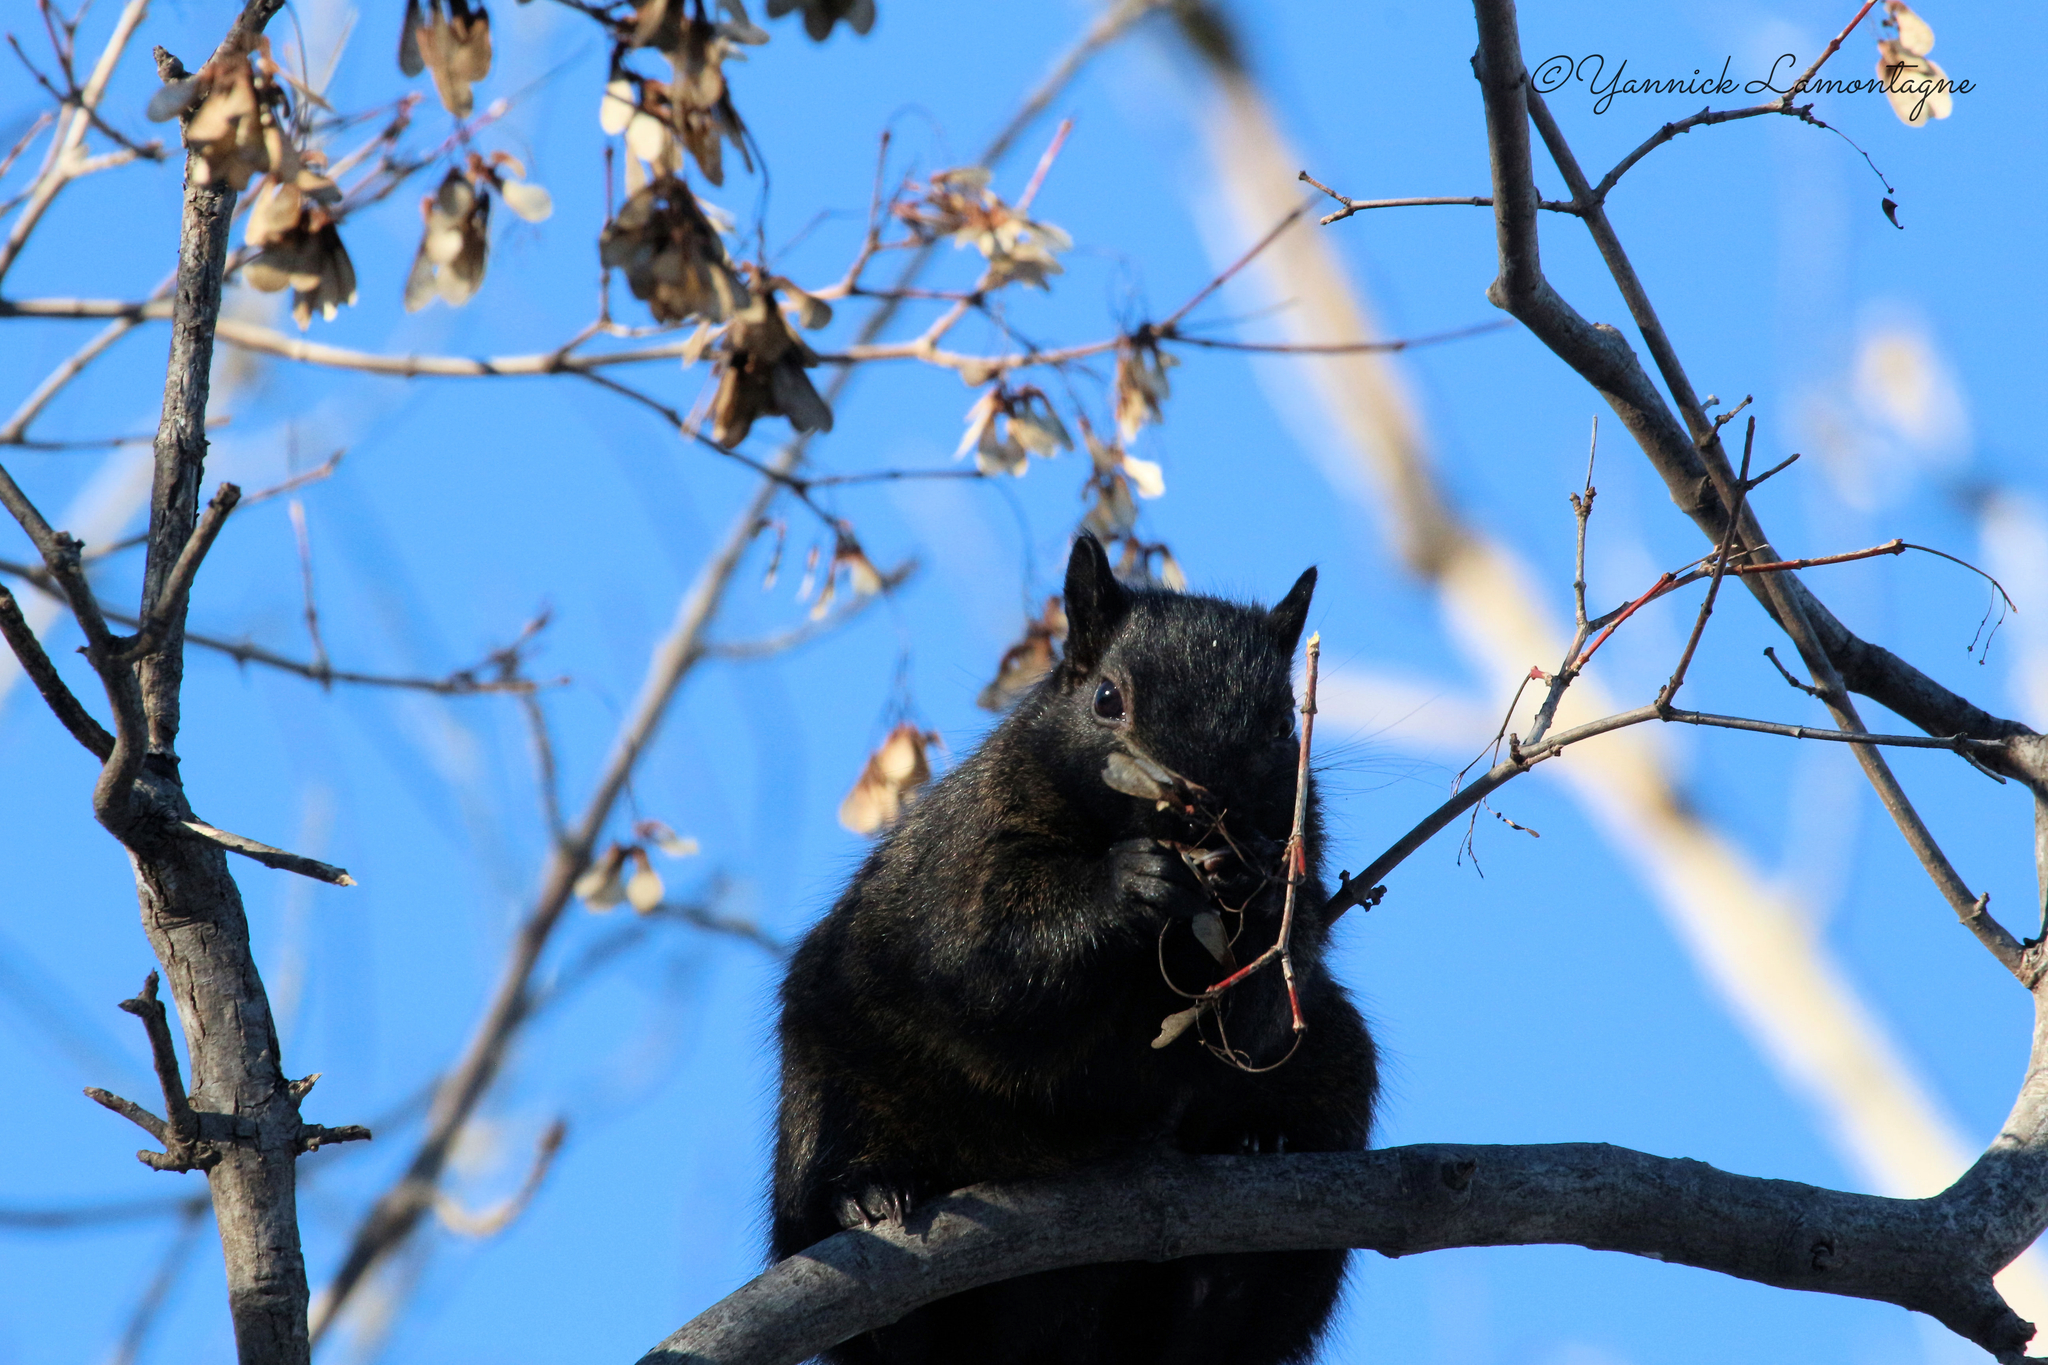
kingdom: Animalia
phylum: Chordata
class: Mammalia
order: Rodentia
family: Sciuridae
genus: Sciurus
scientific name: Sciurus carolinensis
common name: Eastern gray squirrel
